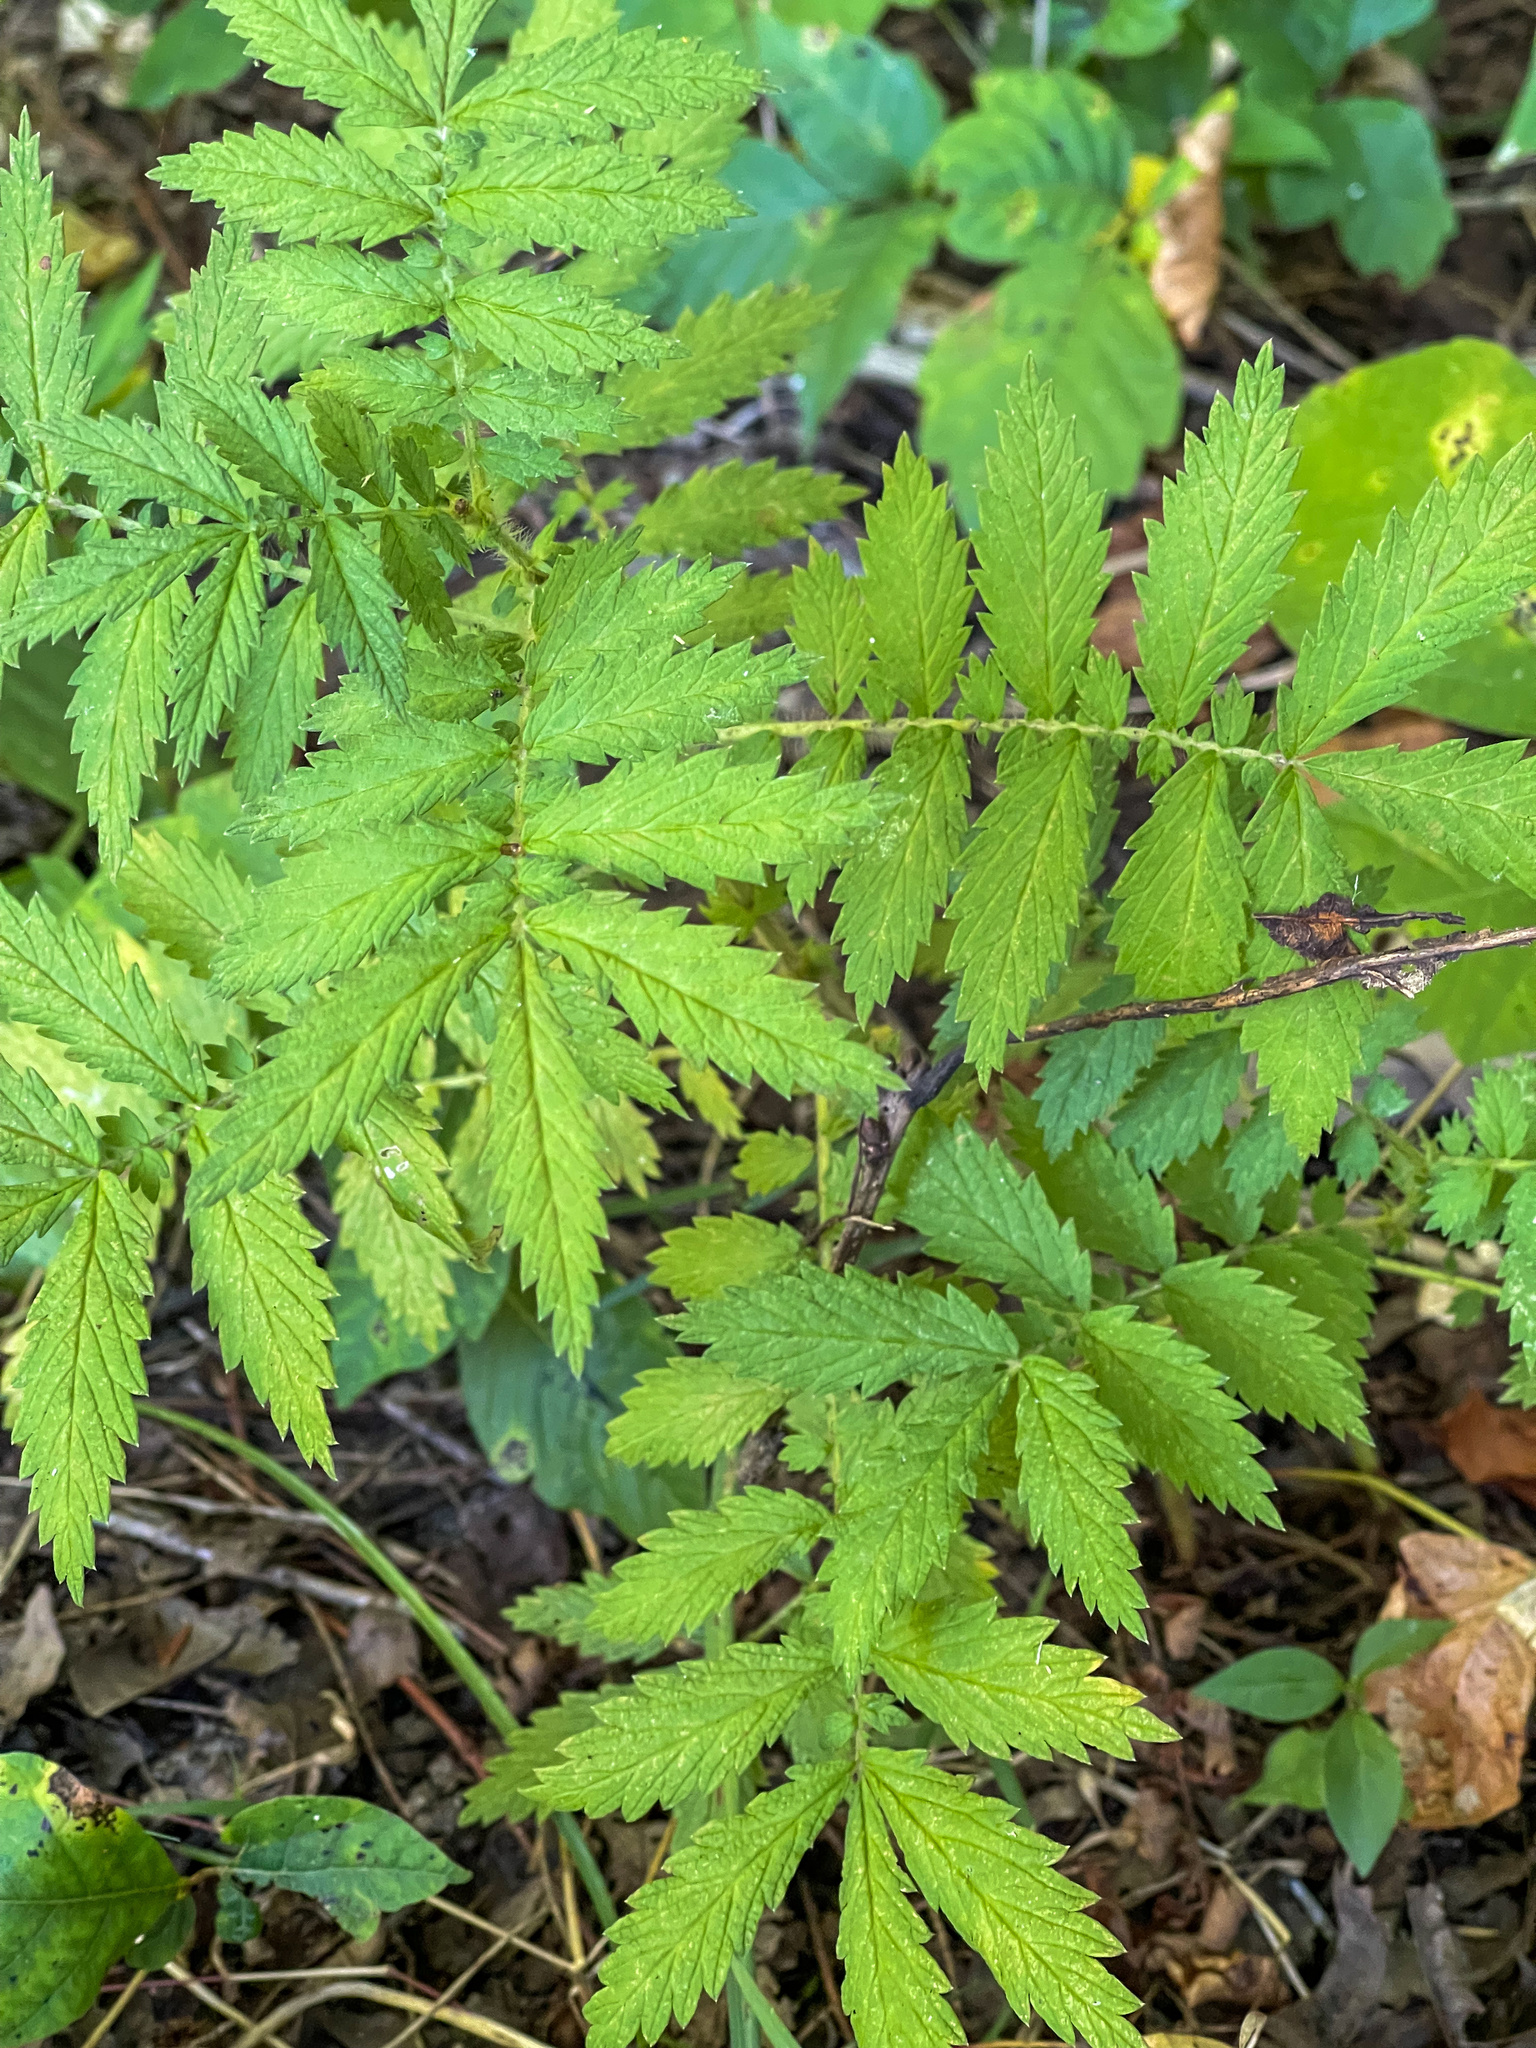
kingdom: Plantae
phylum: Tracheophyta
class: Magnoliopsida
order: Rosales
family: Rosaceae
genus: Agrimonia
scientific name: Agrimonia parviflora
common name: Harvest-lice
